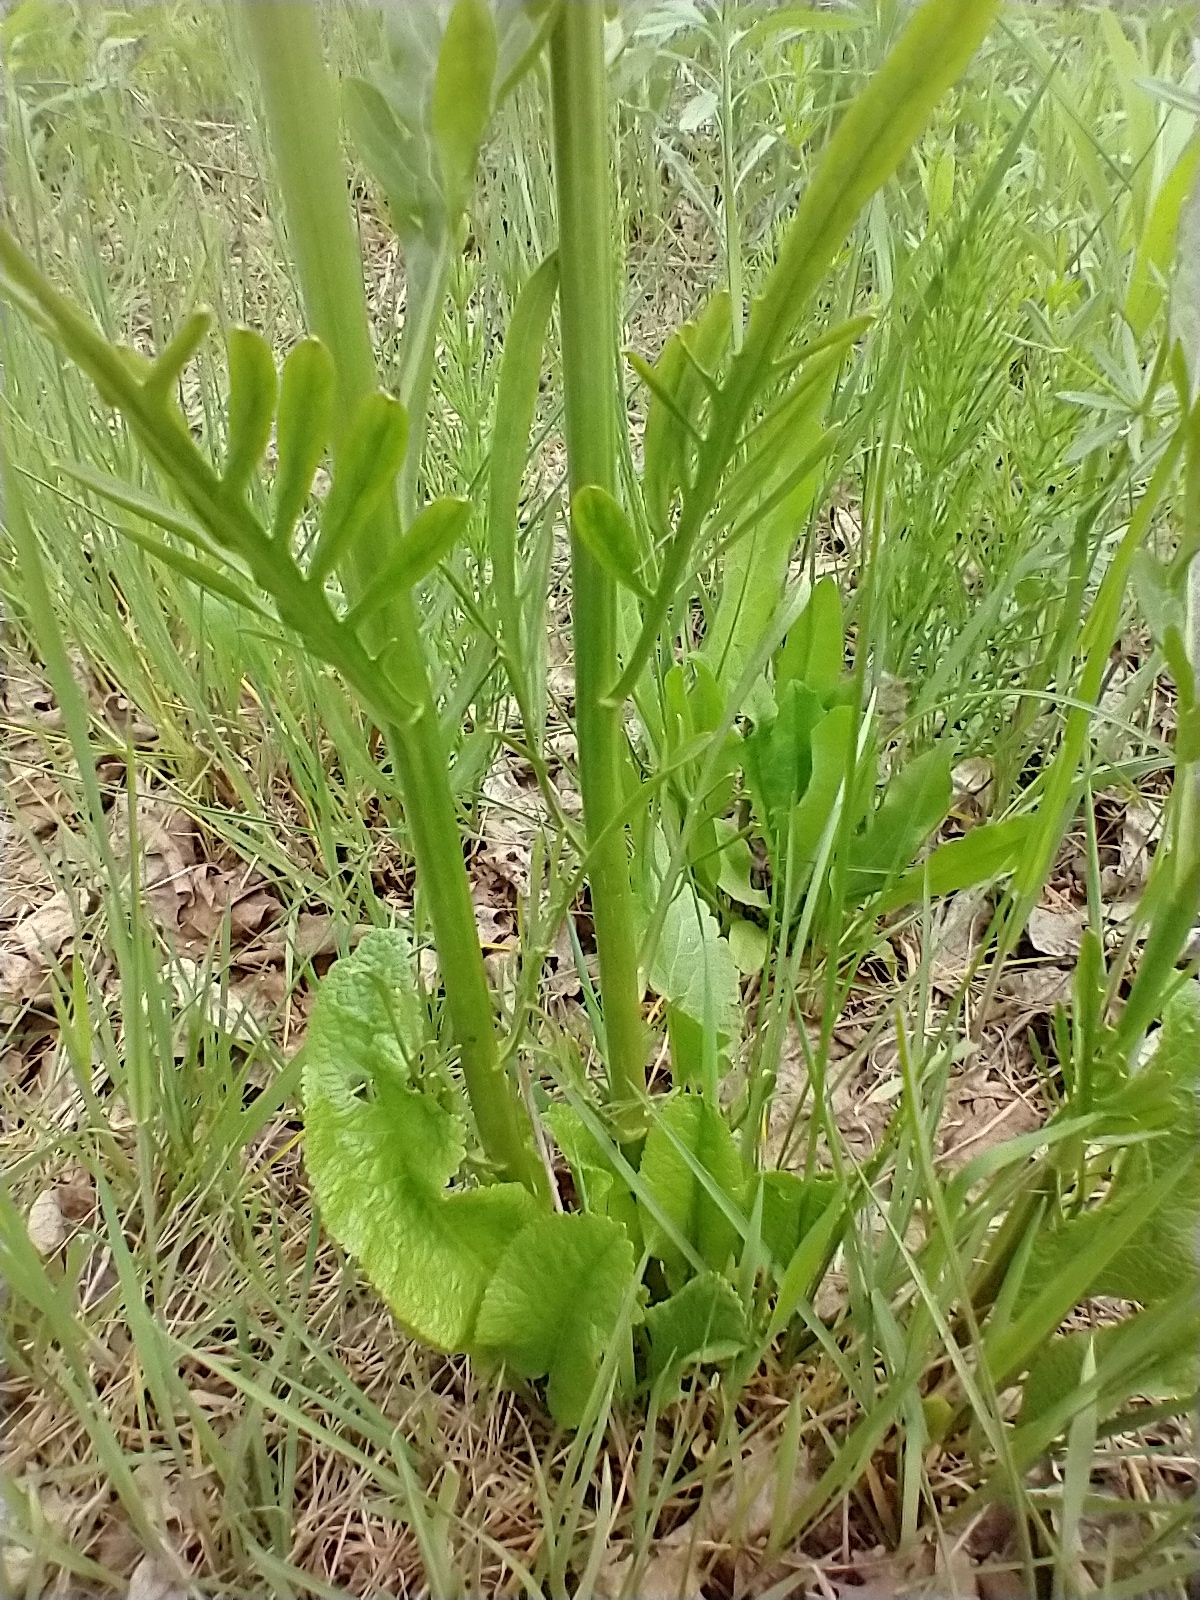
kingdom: Plantae
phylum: Tracheophyta
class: Magnoliopsida
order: Brassicales
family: Brassicaceae
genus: Armoracia
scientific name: Armoracia rusticana
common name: Horseradish
